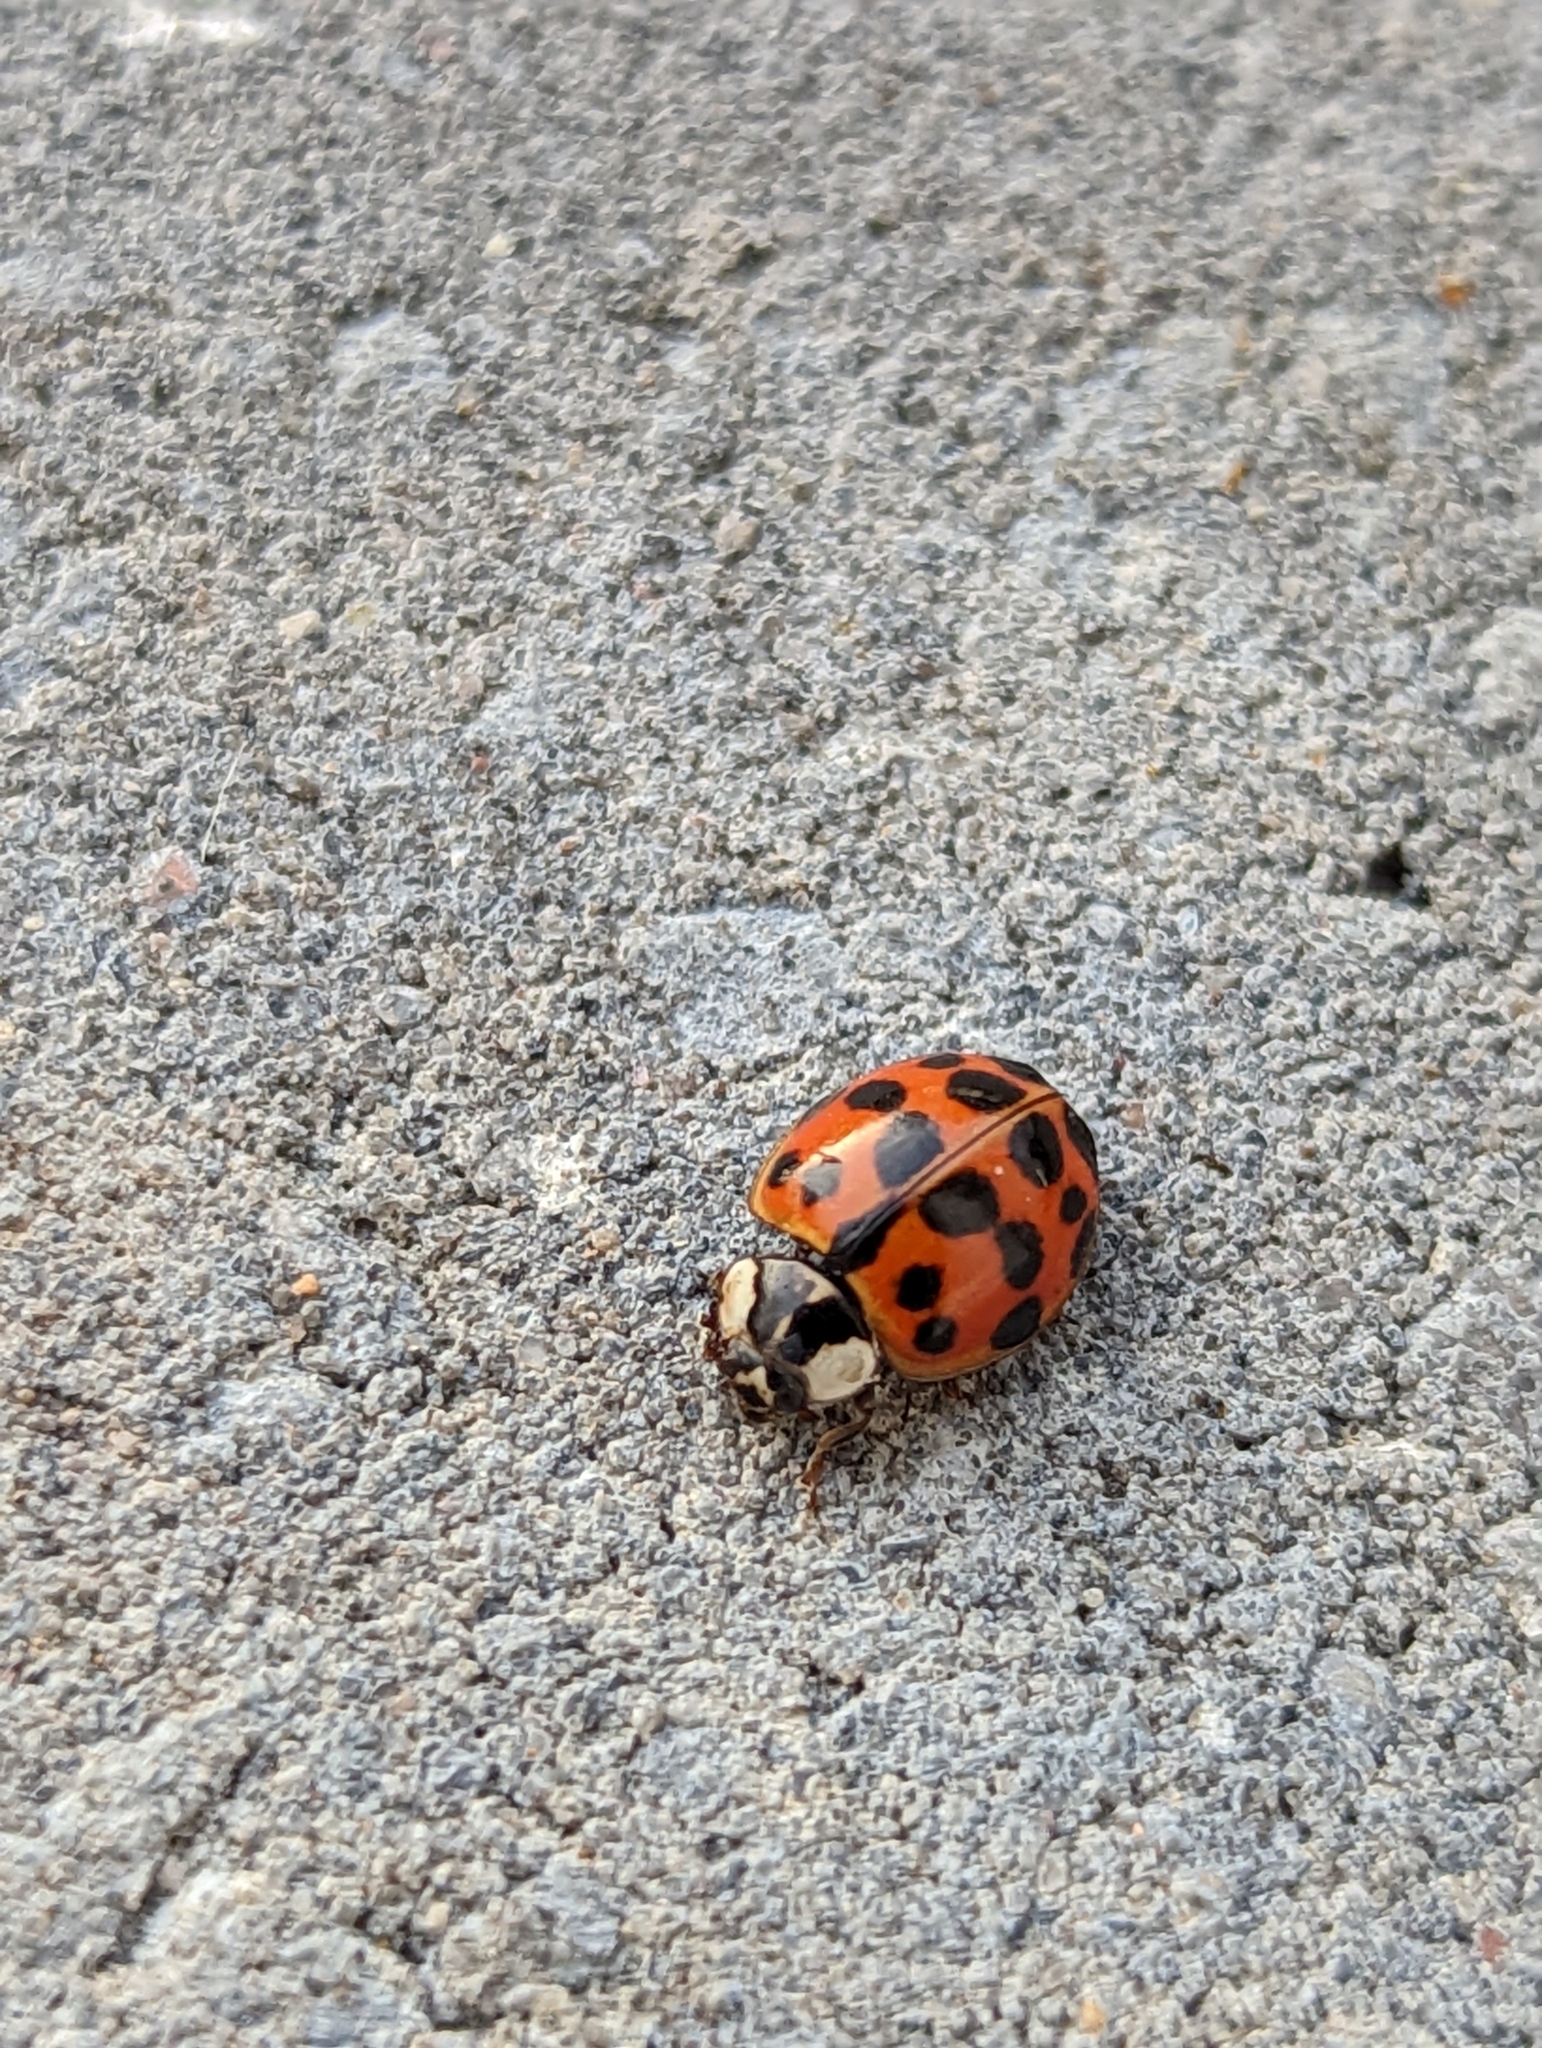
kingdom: Animalia
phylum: Arthropoda
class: Insecta
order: Coleoptera
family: Coccinellidae
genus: Harmonia
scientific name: Harmonia axyridis
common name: Harlequin ladybird
